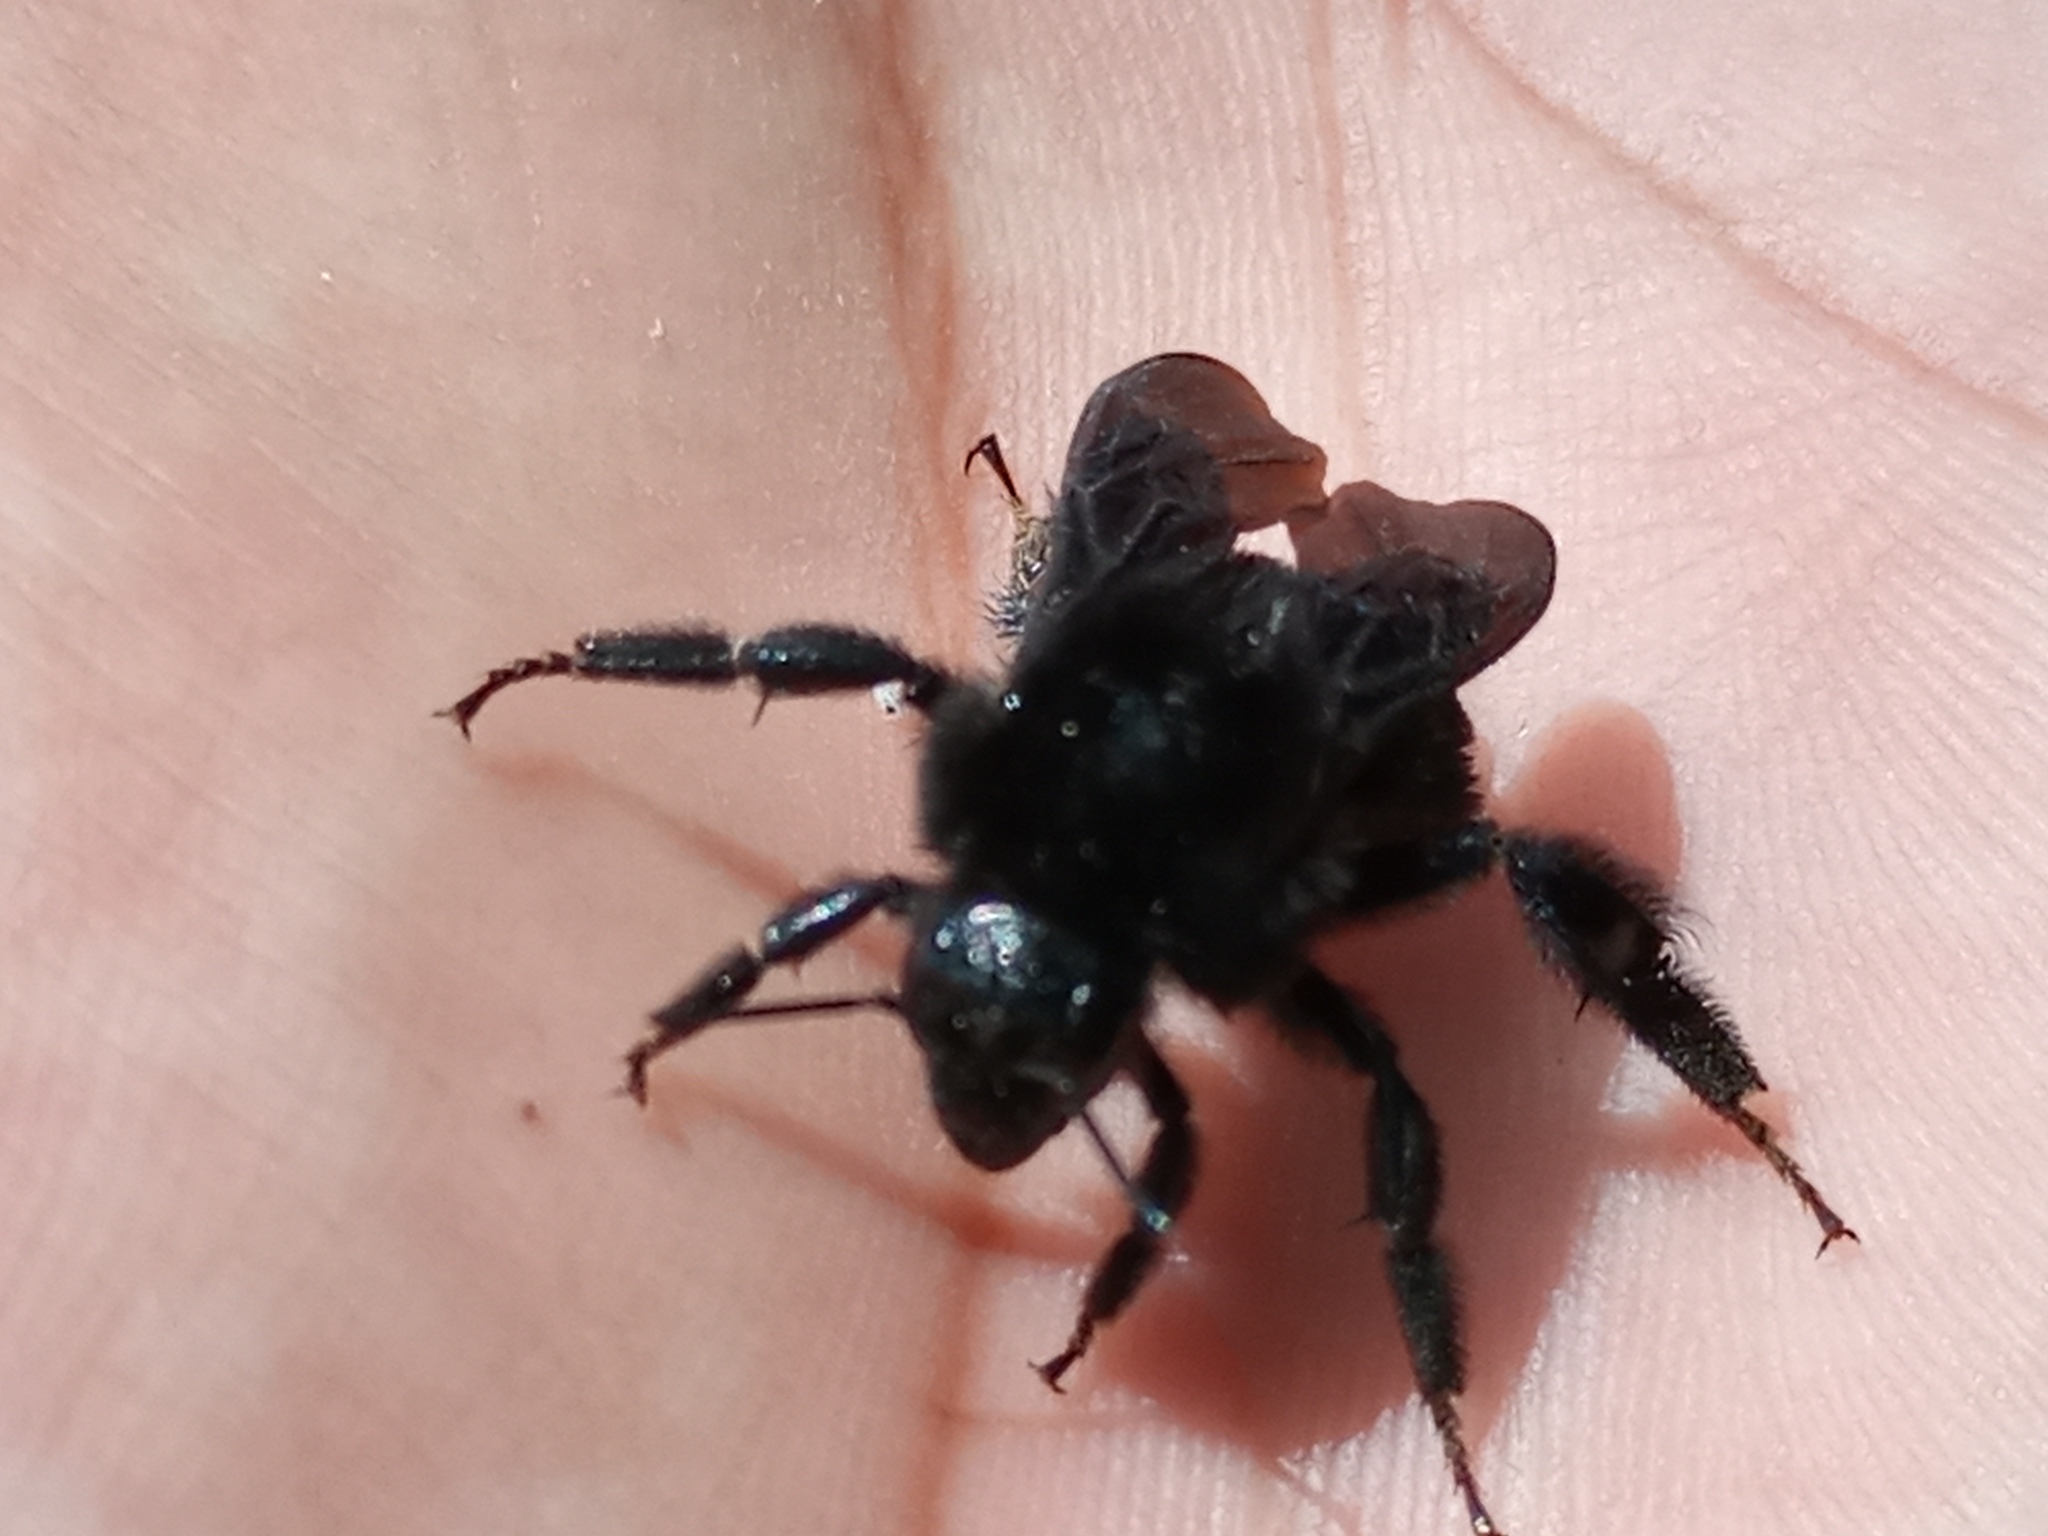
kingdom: Animalia
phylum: Arthropoda
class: Insecta
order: Hymenoptera
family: Apidae
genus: Bombus
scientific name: Bombus pauloensis
